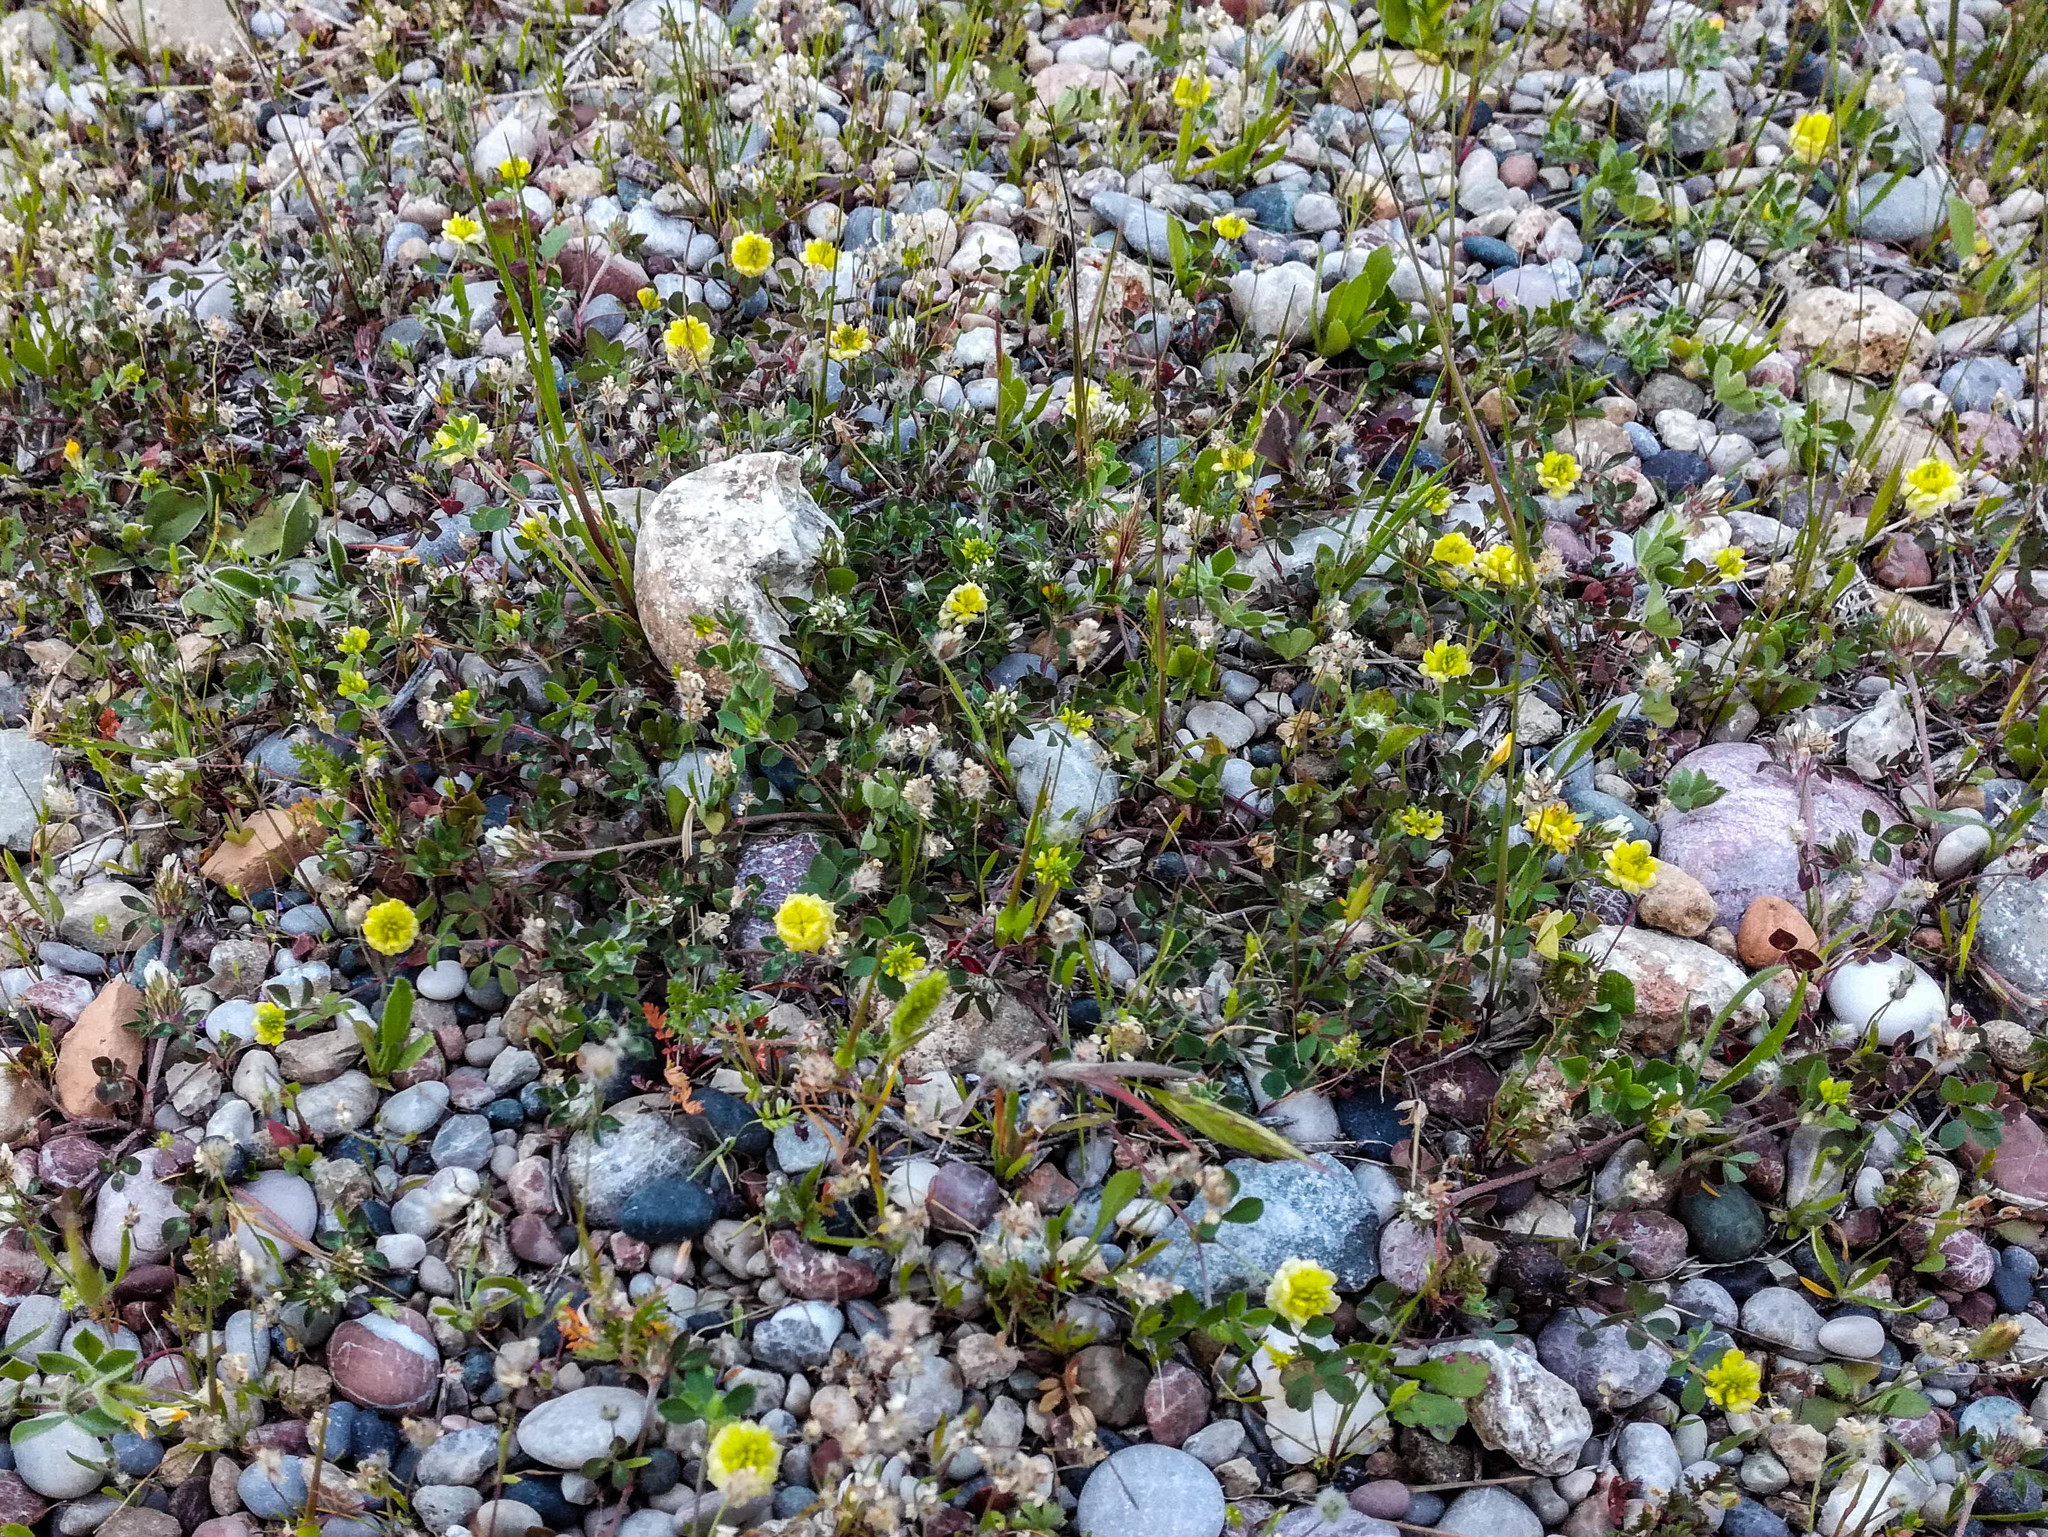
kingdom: Plantae
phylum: Tracheophyta
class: Magnoliopsida
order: Fabales
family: Fabaceae
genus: Trifolium
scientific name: Trifolium campestre
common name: Field clover
